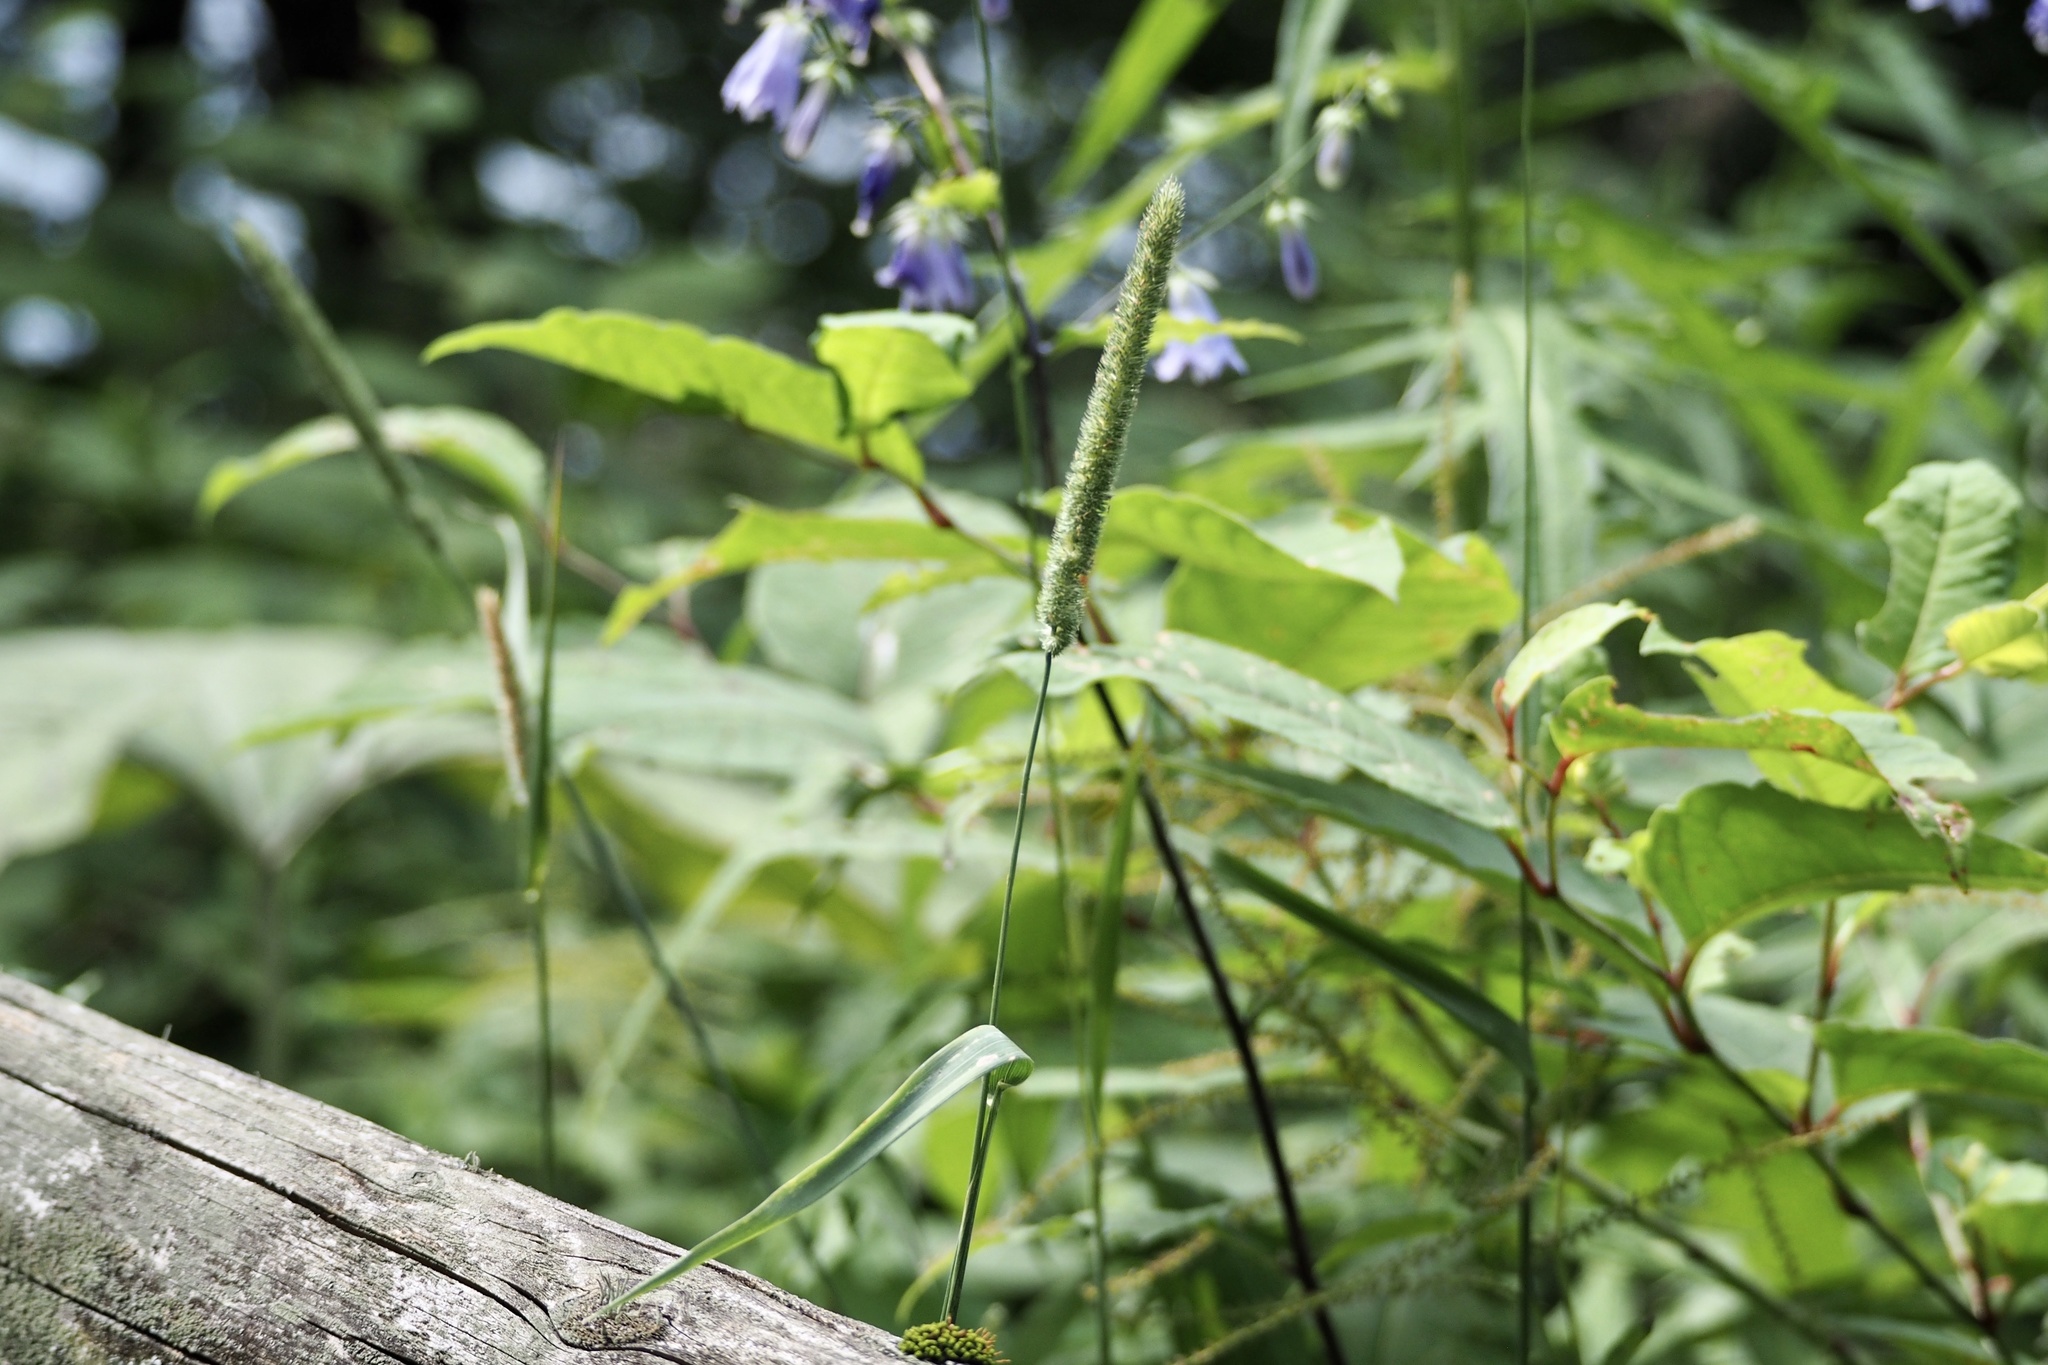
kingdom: Plantae
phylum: Tracheophyta
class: Liliopsida
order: Poales
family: Poaceae
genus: Phleum
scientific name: Phleum pratense
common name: Timothy grass
